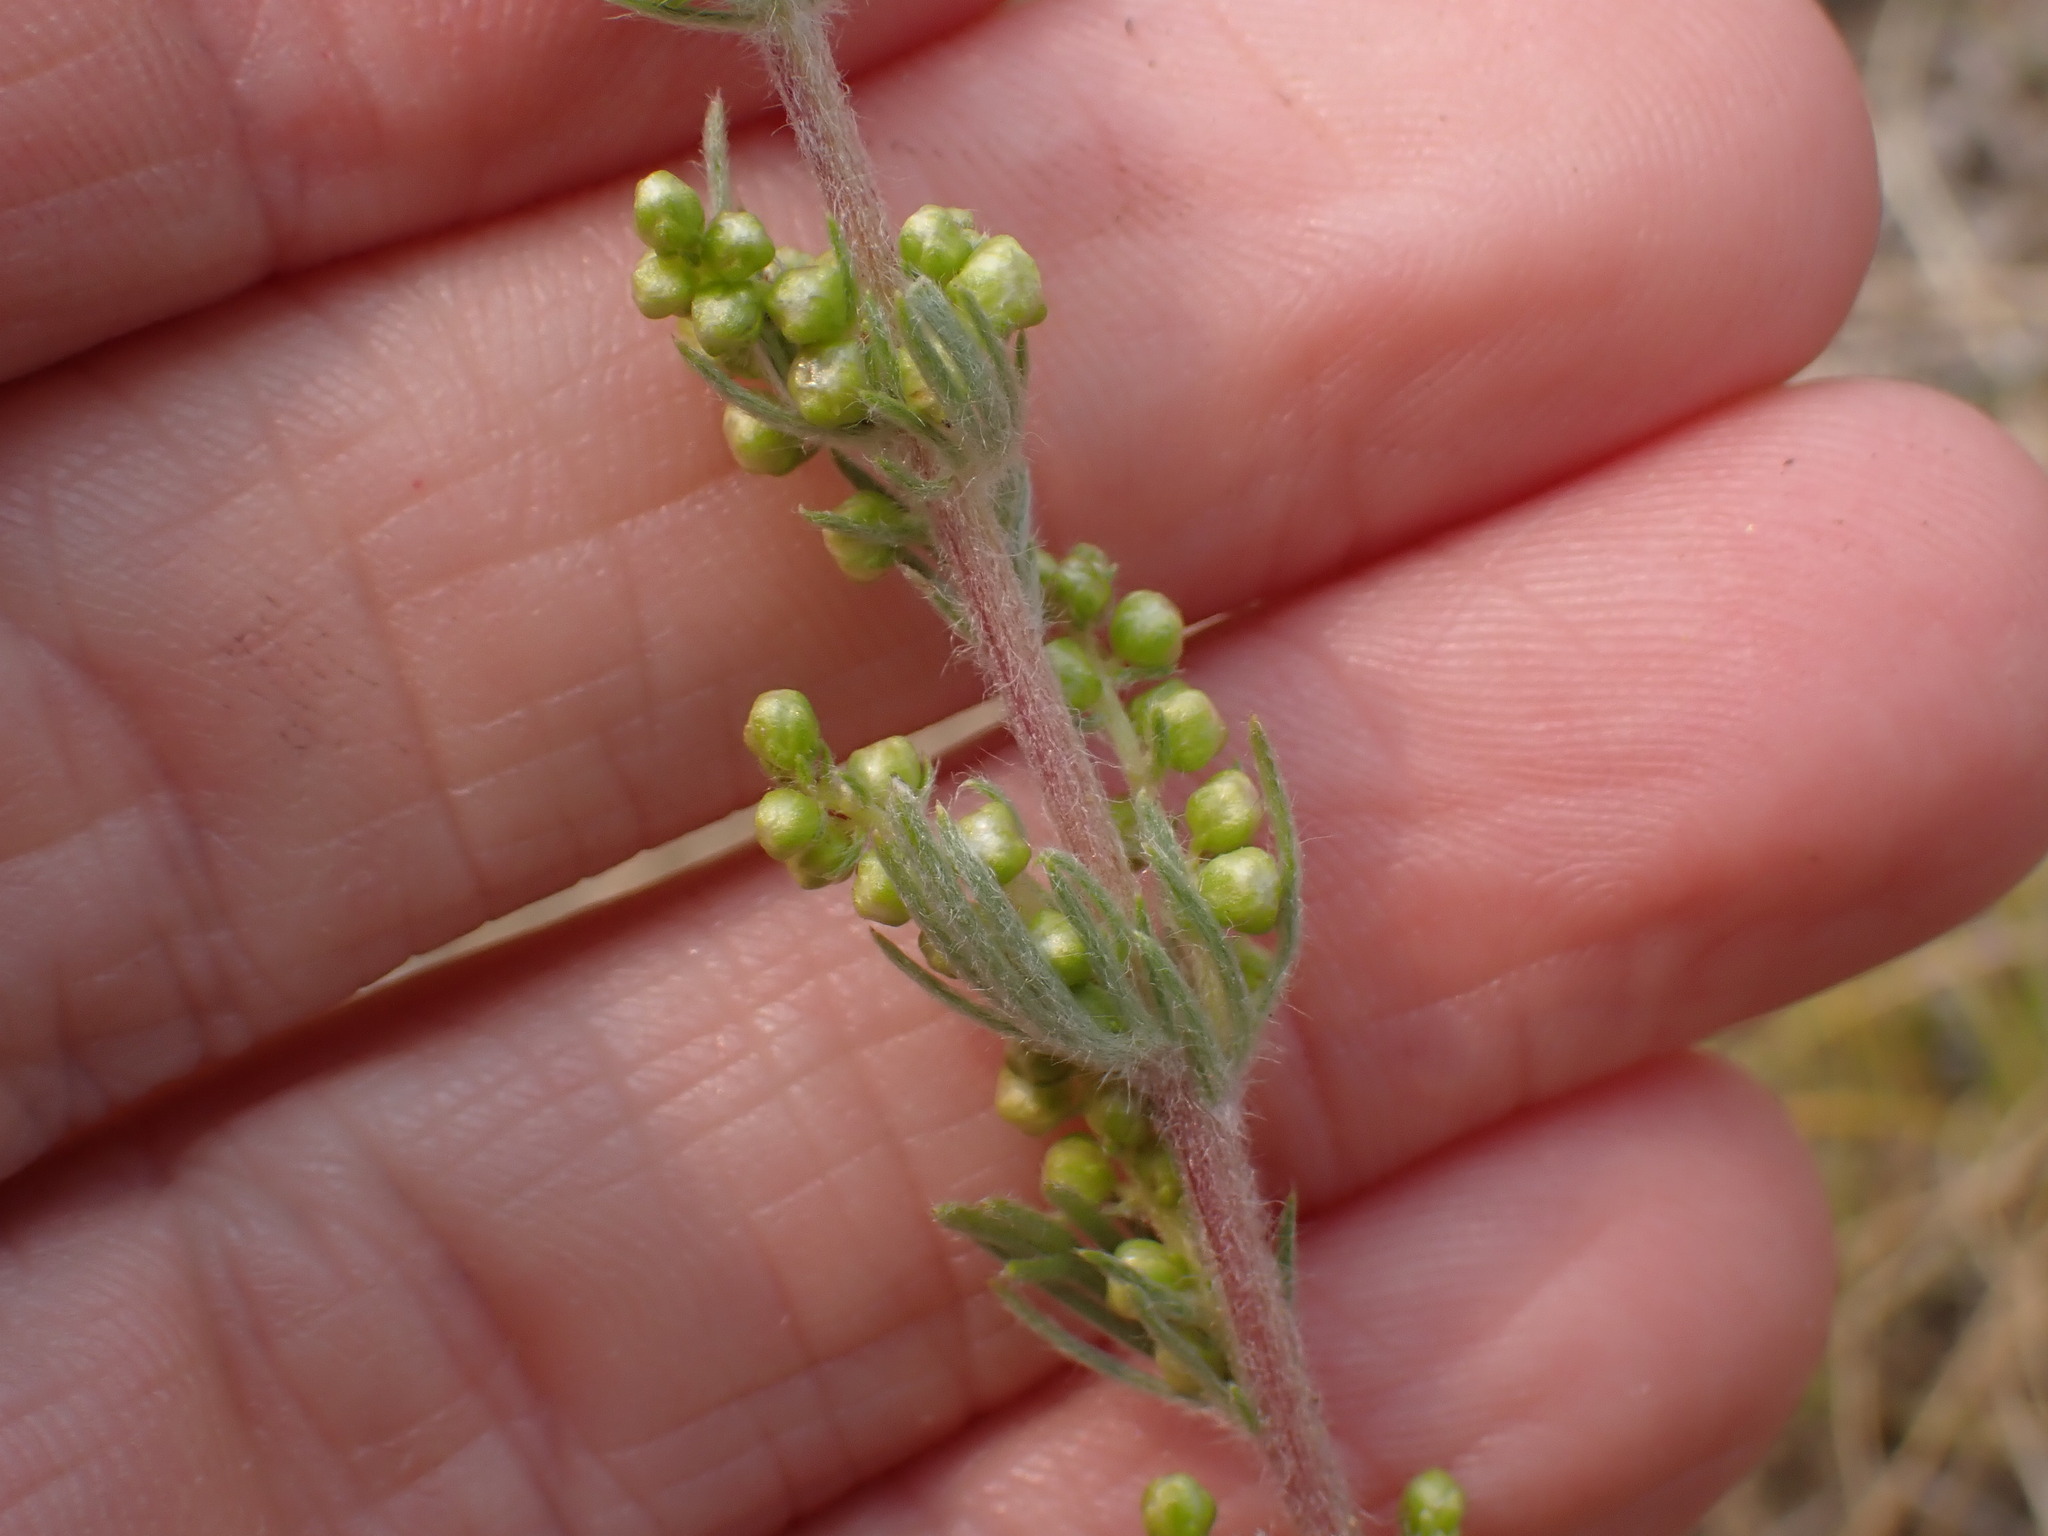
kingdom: Plantae
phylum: Tracheophyta
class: Magnoliopsida
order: Asterales
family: Asteraceae
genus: Artemisia
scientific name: Artemisia campestris
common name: Field wormwood
